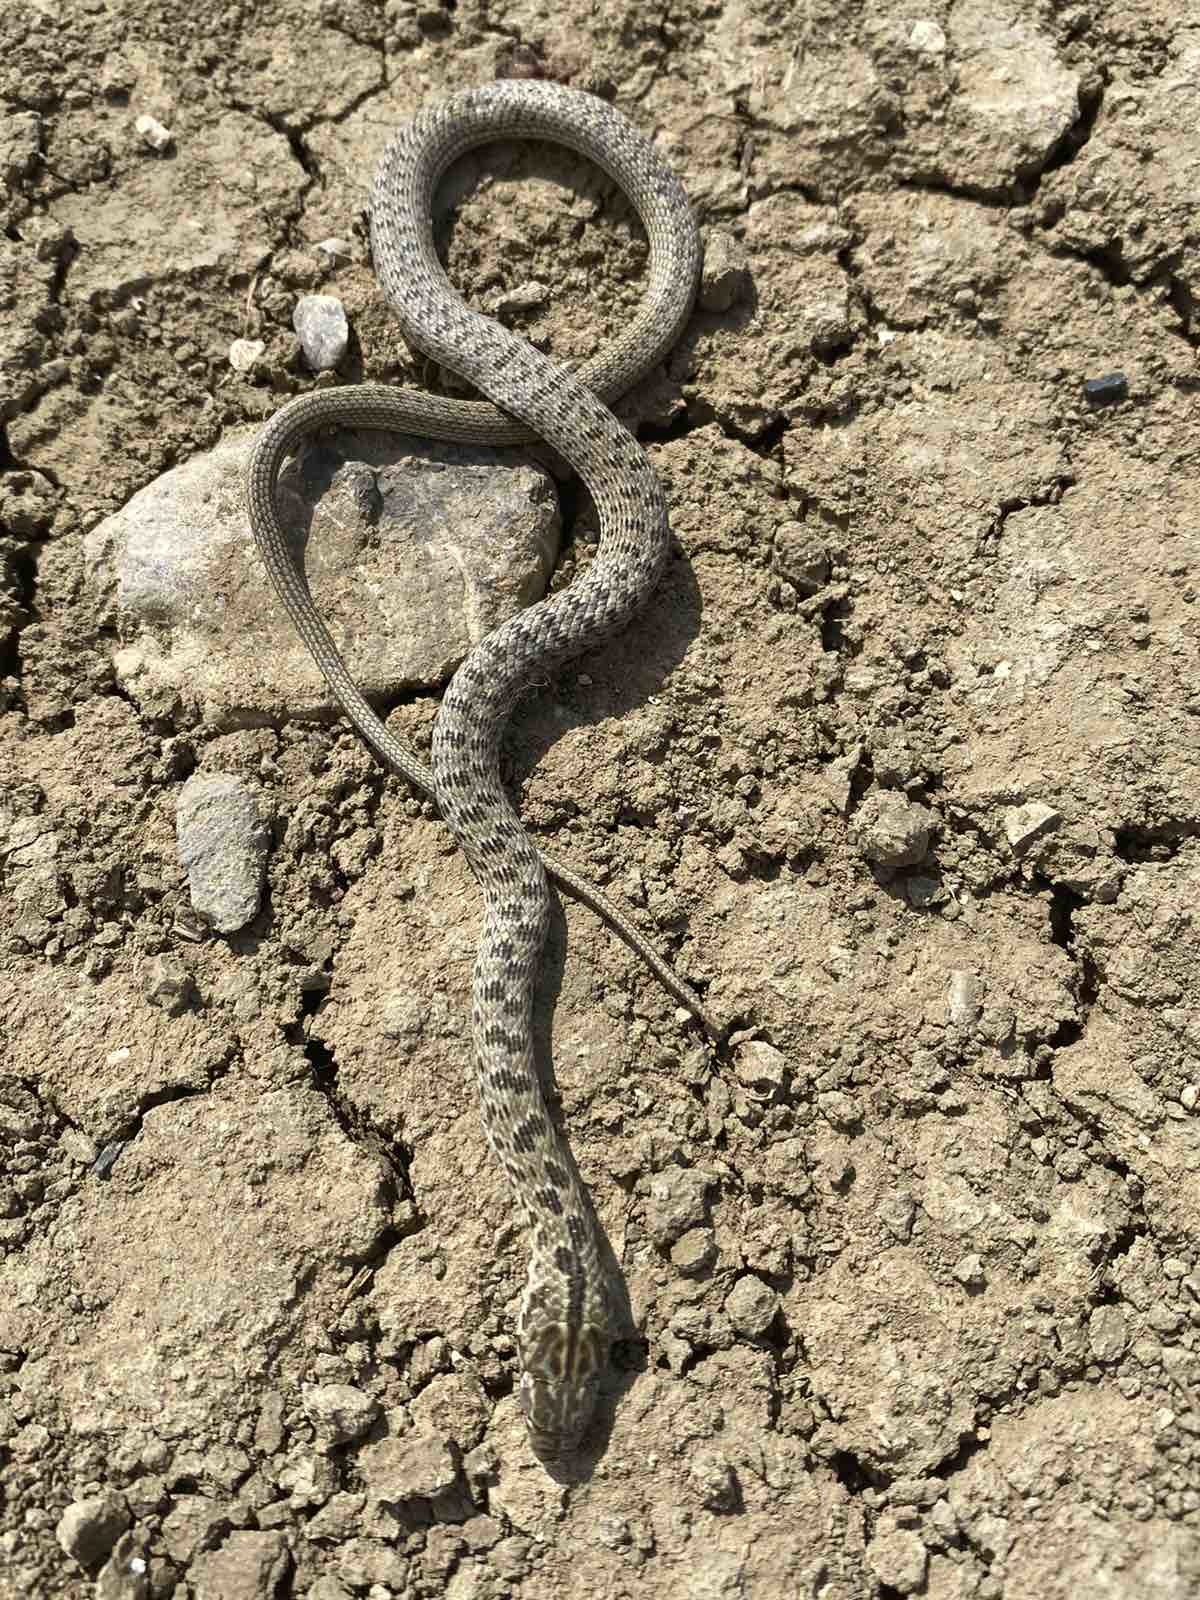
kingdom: Animalia
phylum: Chordata
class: Squamata
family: Colubridae
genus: Dolichophis
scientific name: Dolichophis caspius
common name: Large whip snake
